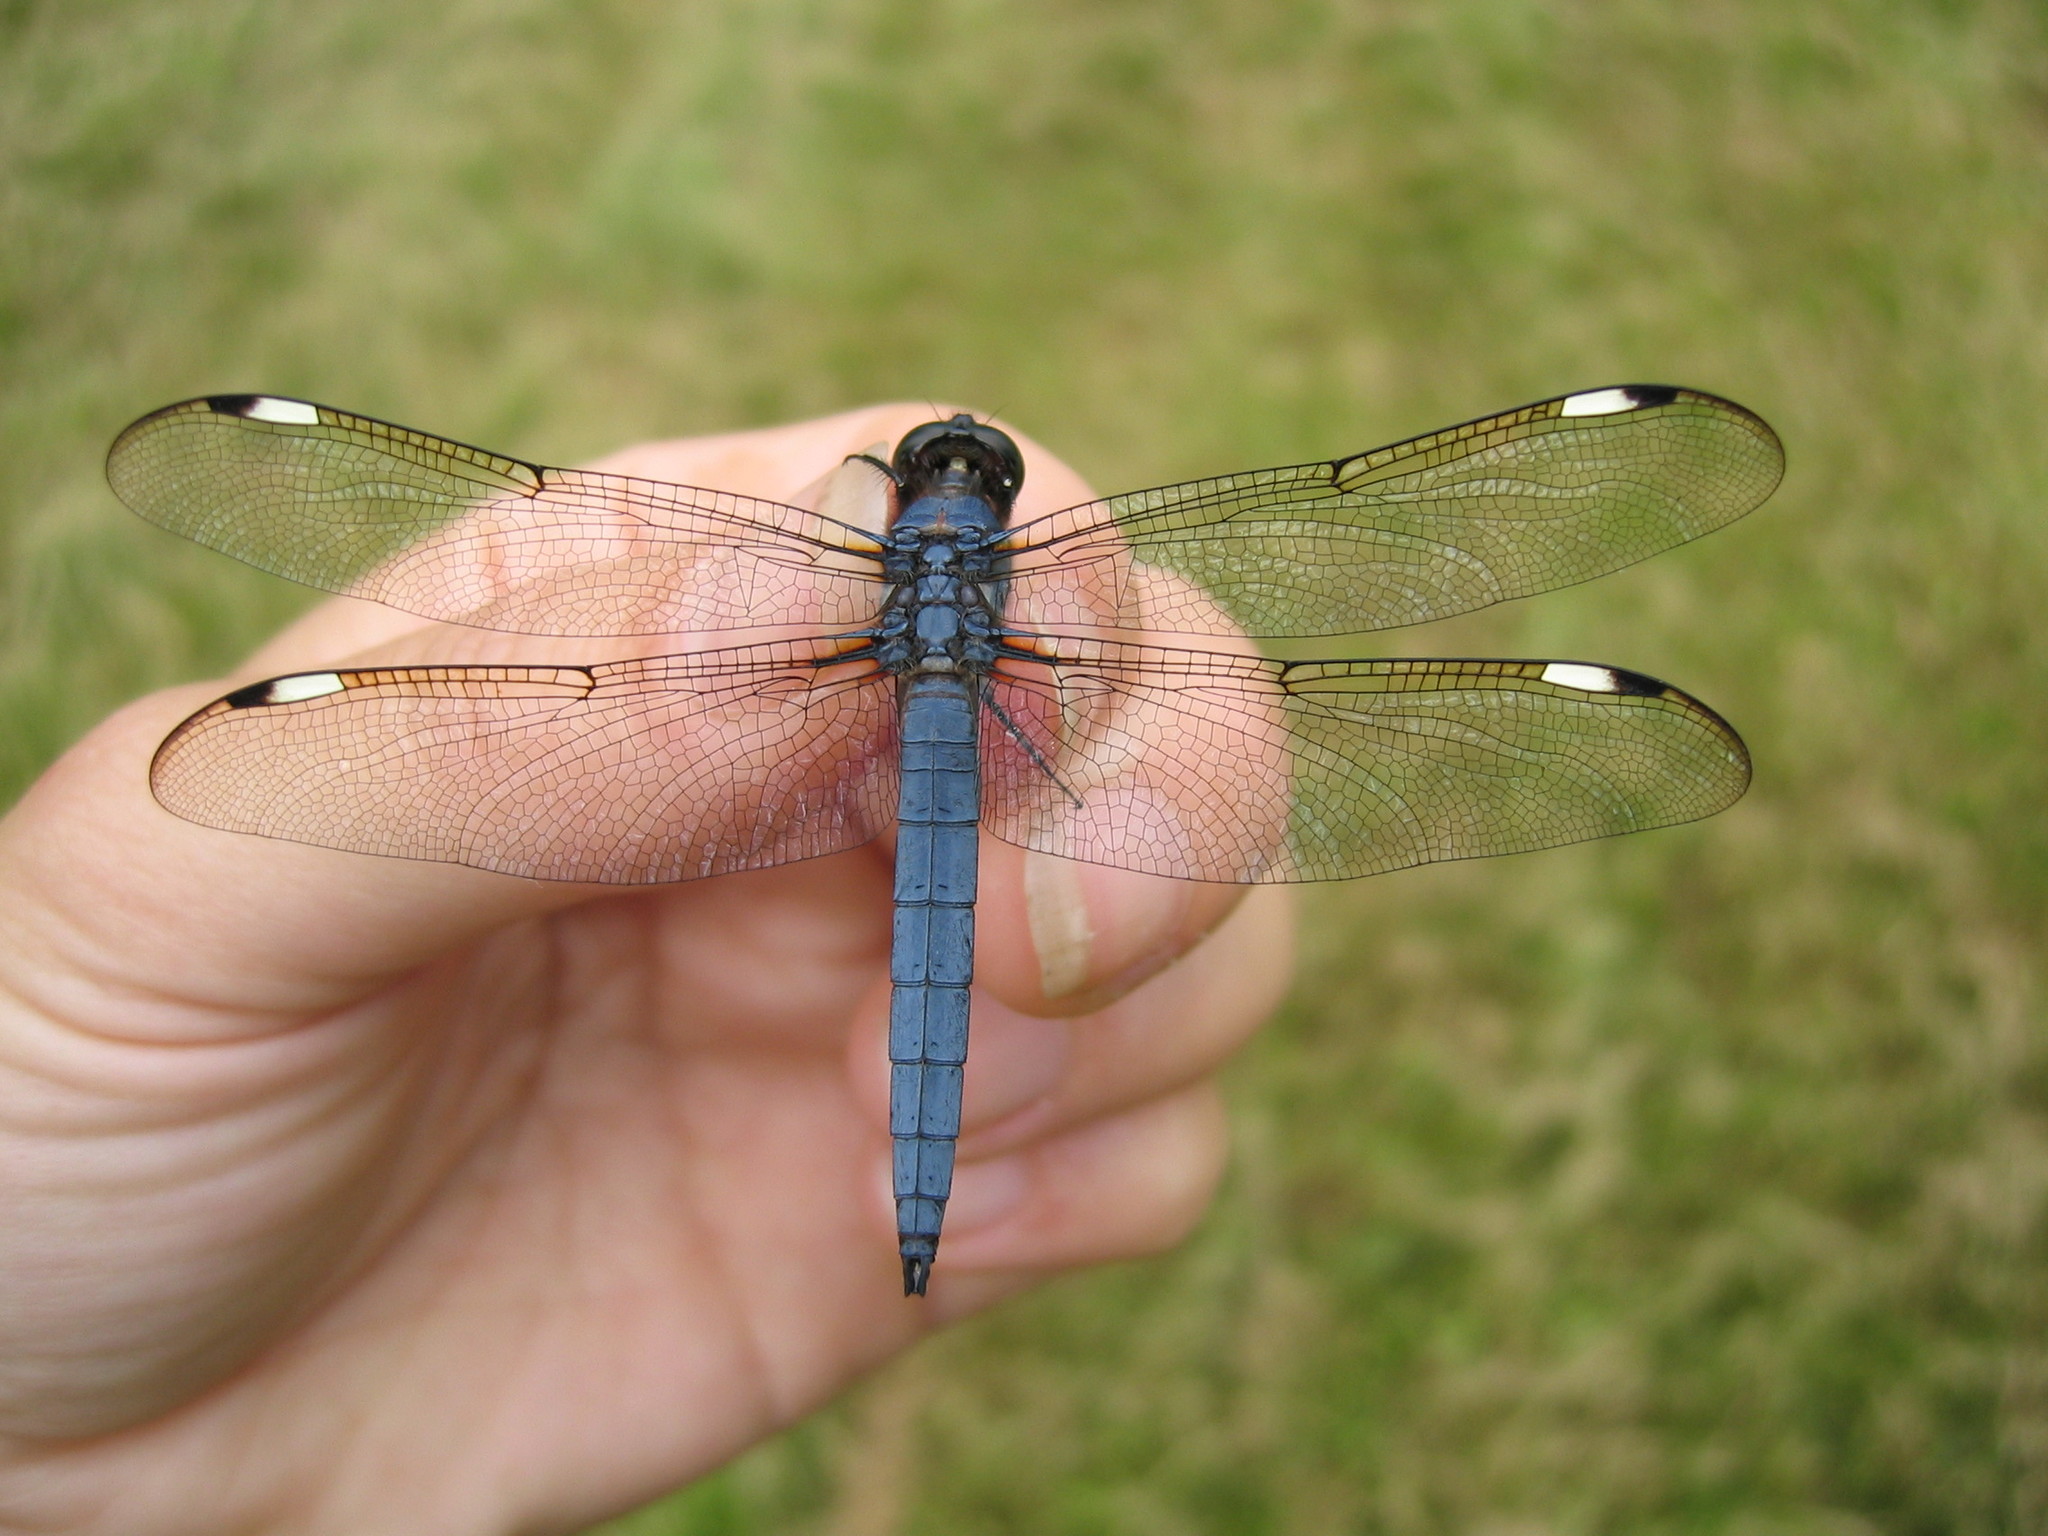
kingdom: Animalia
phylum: Arthropoda
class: Insecta
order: Odonata
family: Libellulidae
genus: Libellula
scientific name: Libellula cyanea
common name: Spangled skimmer
